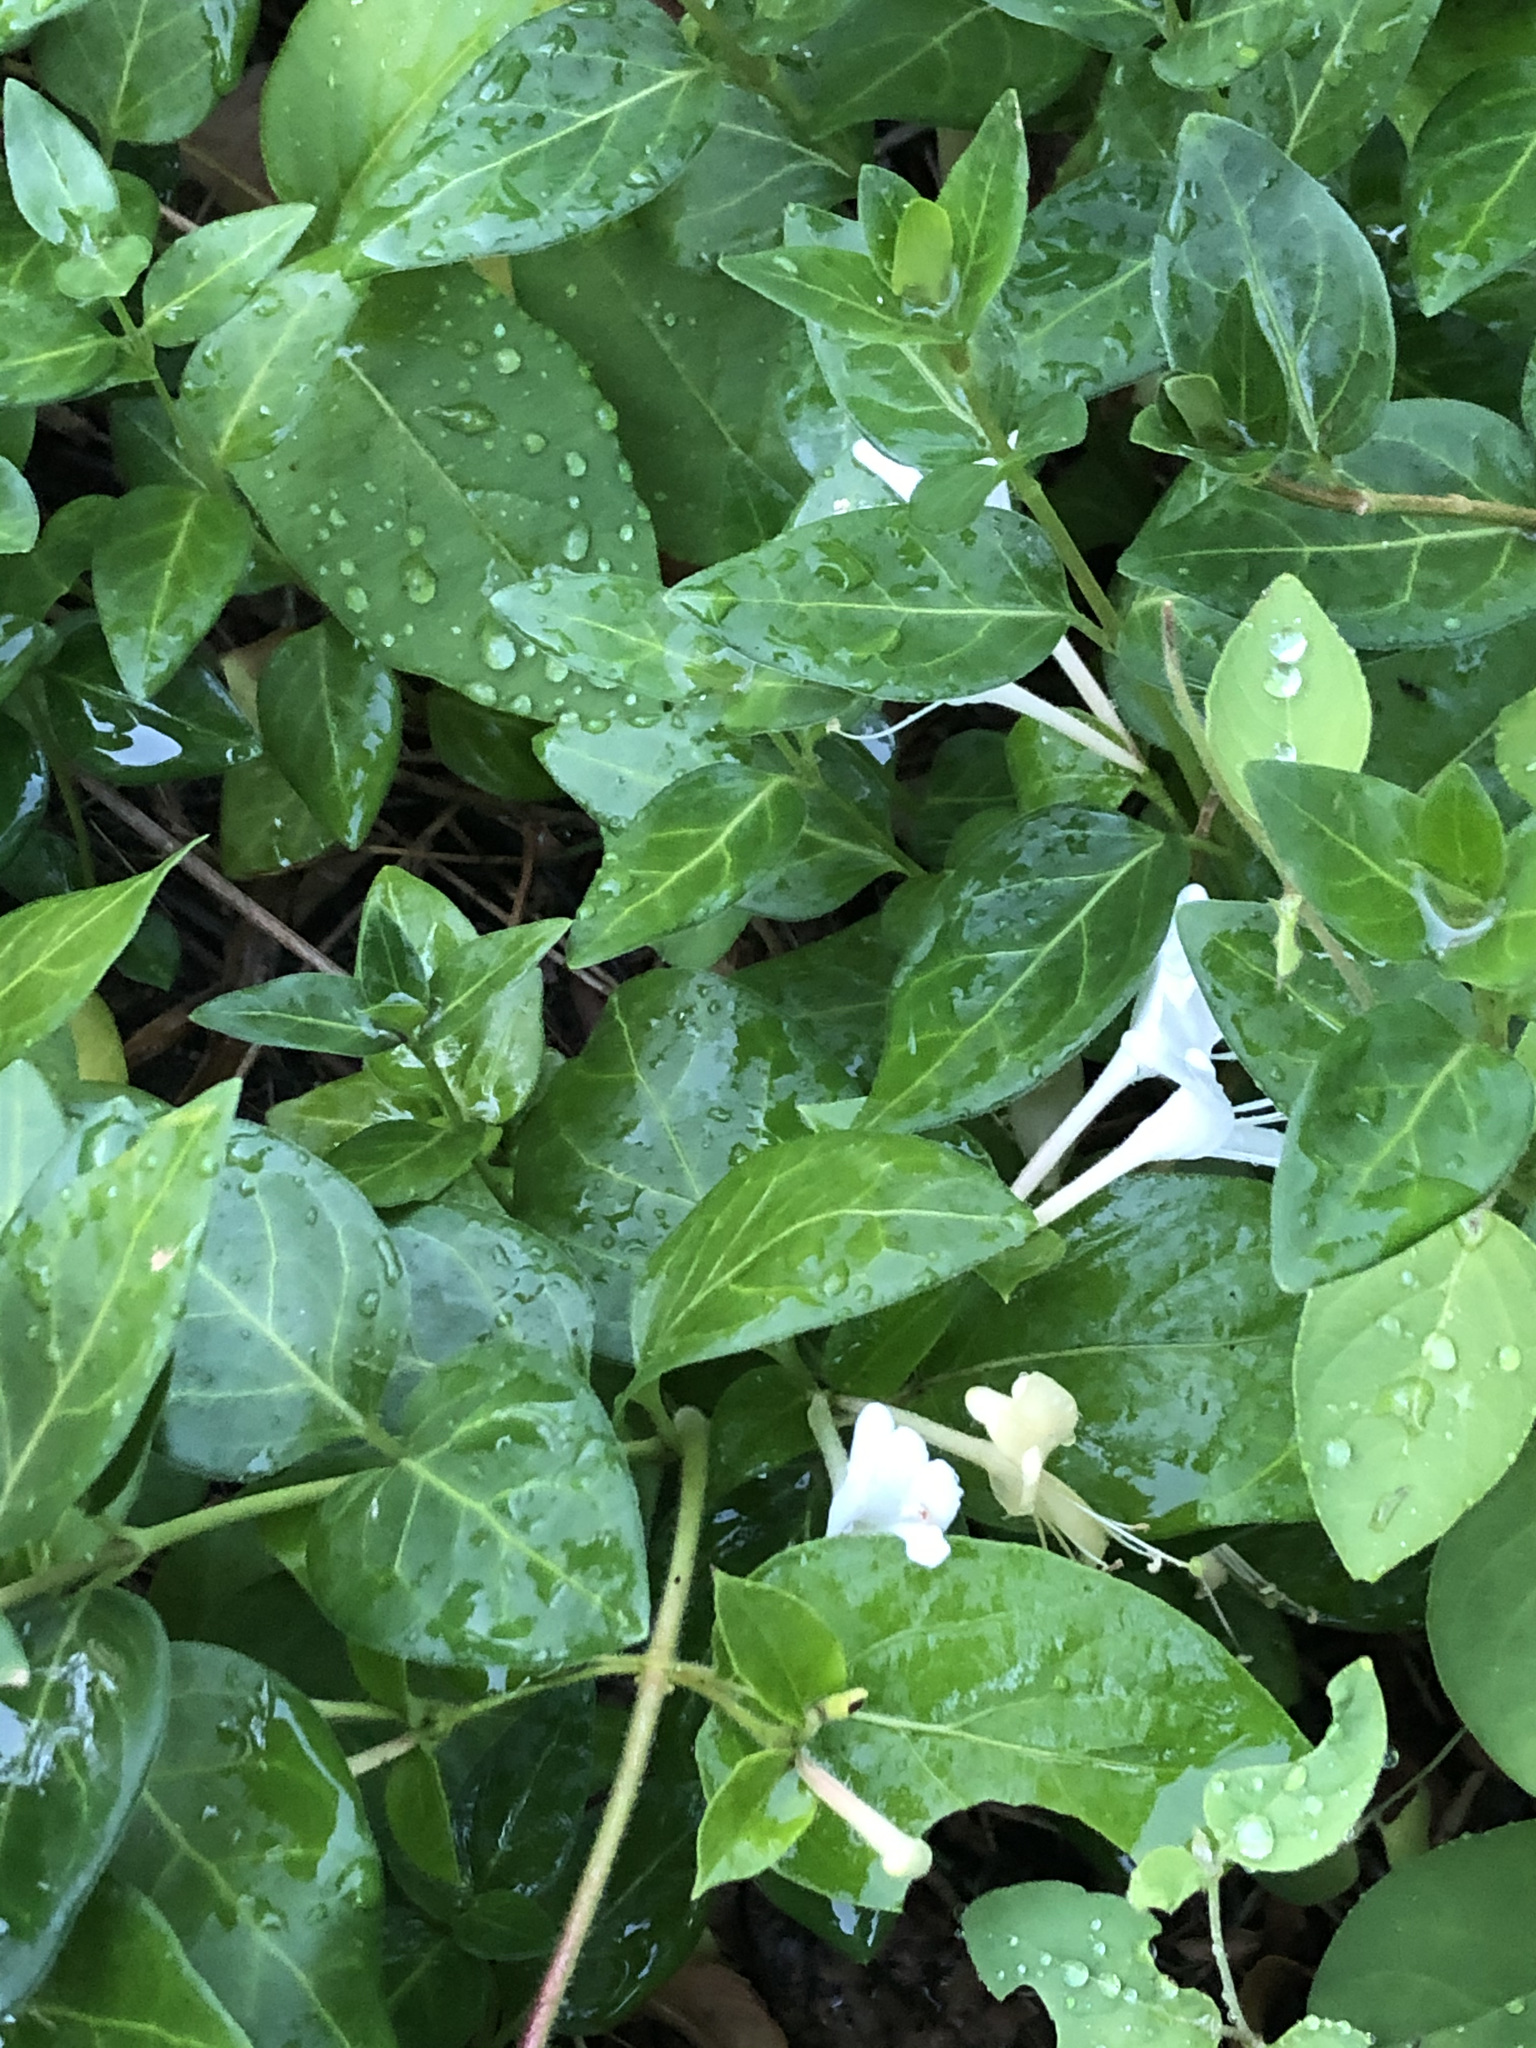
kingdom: Plantae
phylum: Tracheophyta
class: Magnoliopsida
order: Dipsacales
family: Caprifoliaceae
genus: Lonicera
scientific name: Lonicera japonica
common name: Japanese honeysuckle
